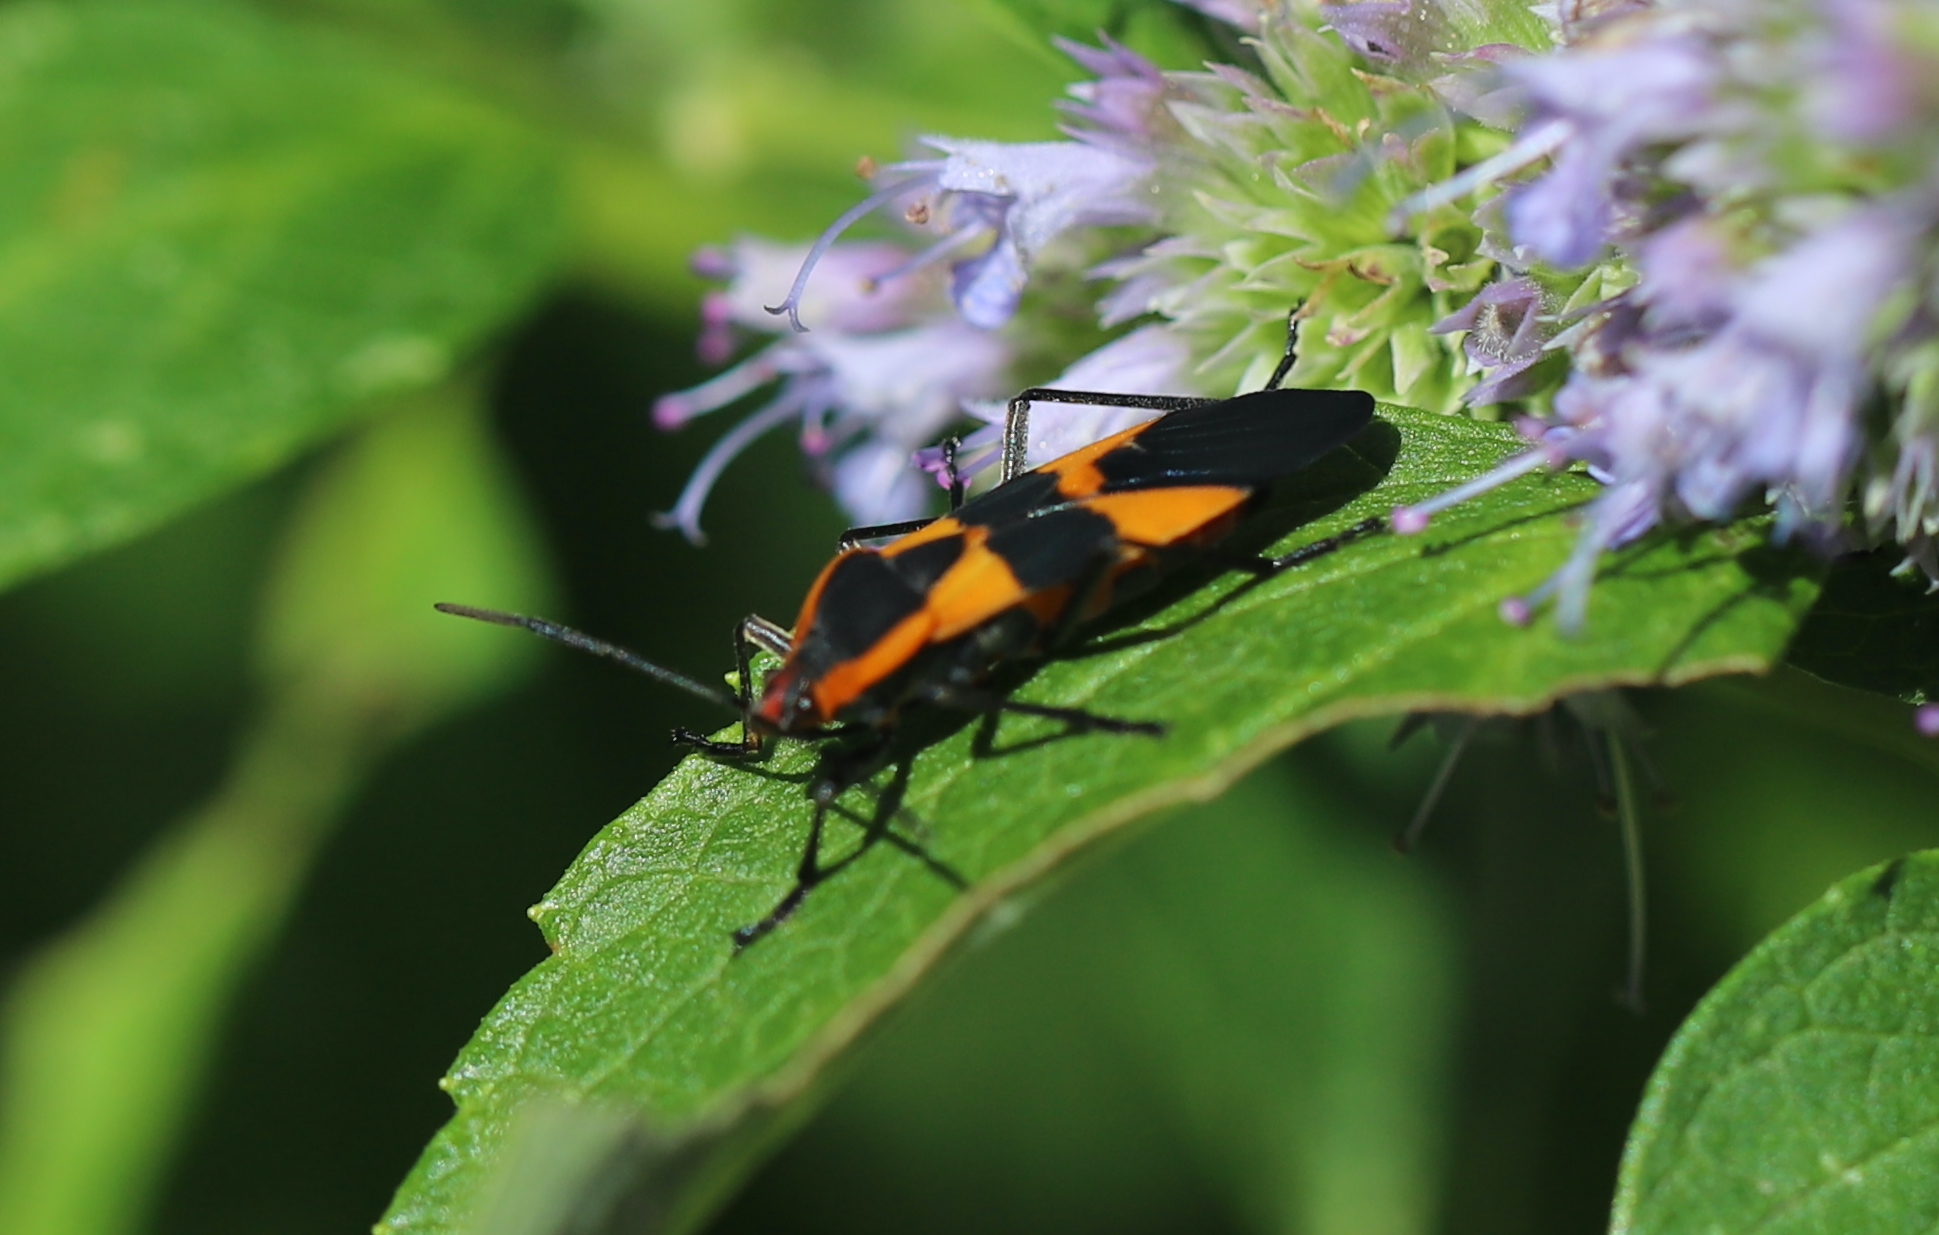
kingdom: Animalia
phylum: Arthropoda
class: Insecta
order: Hemiptera
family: Lygaeidae
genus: Oncopeltus
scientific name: Oncopeltus fasciatus
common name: Large milkweed bug
